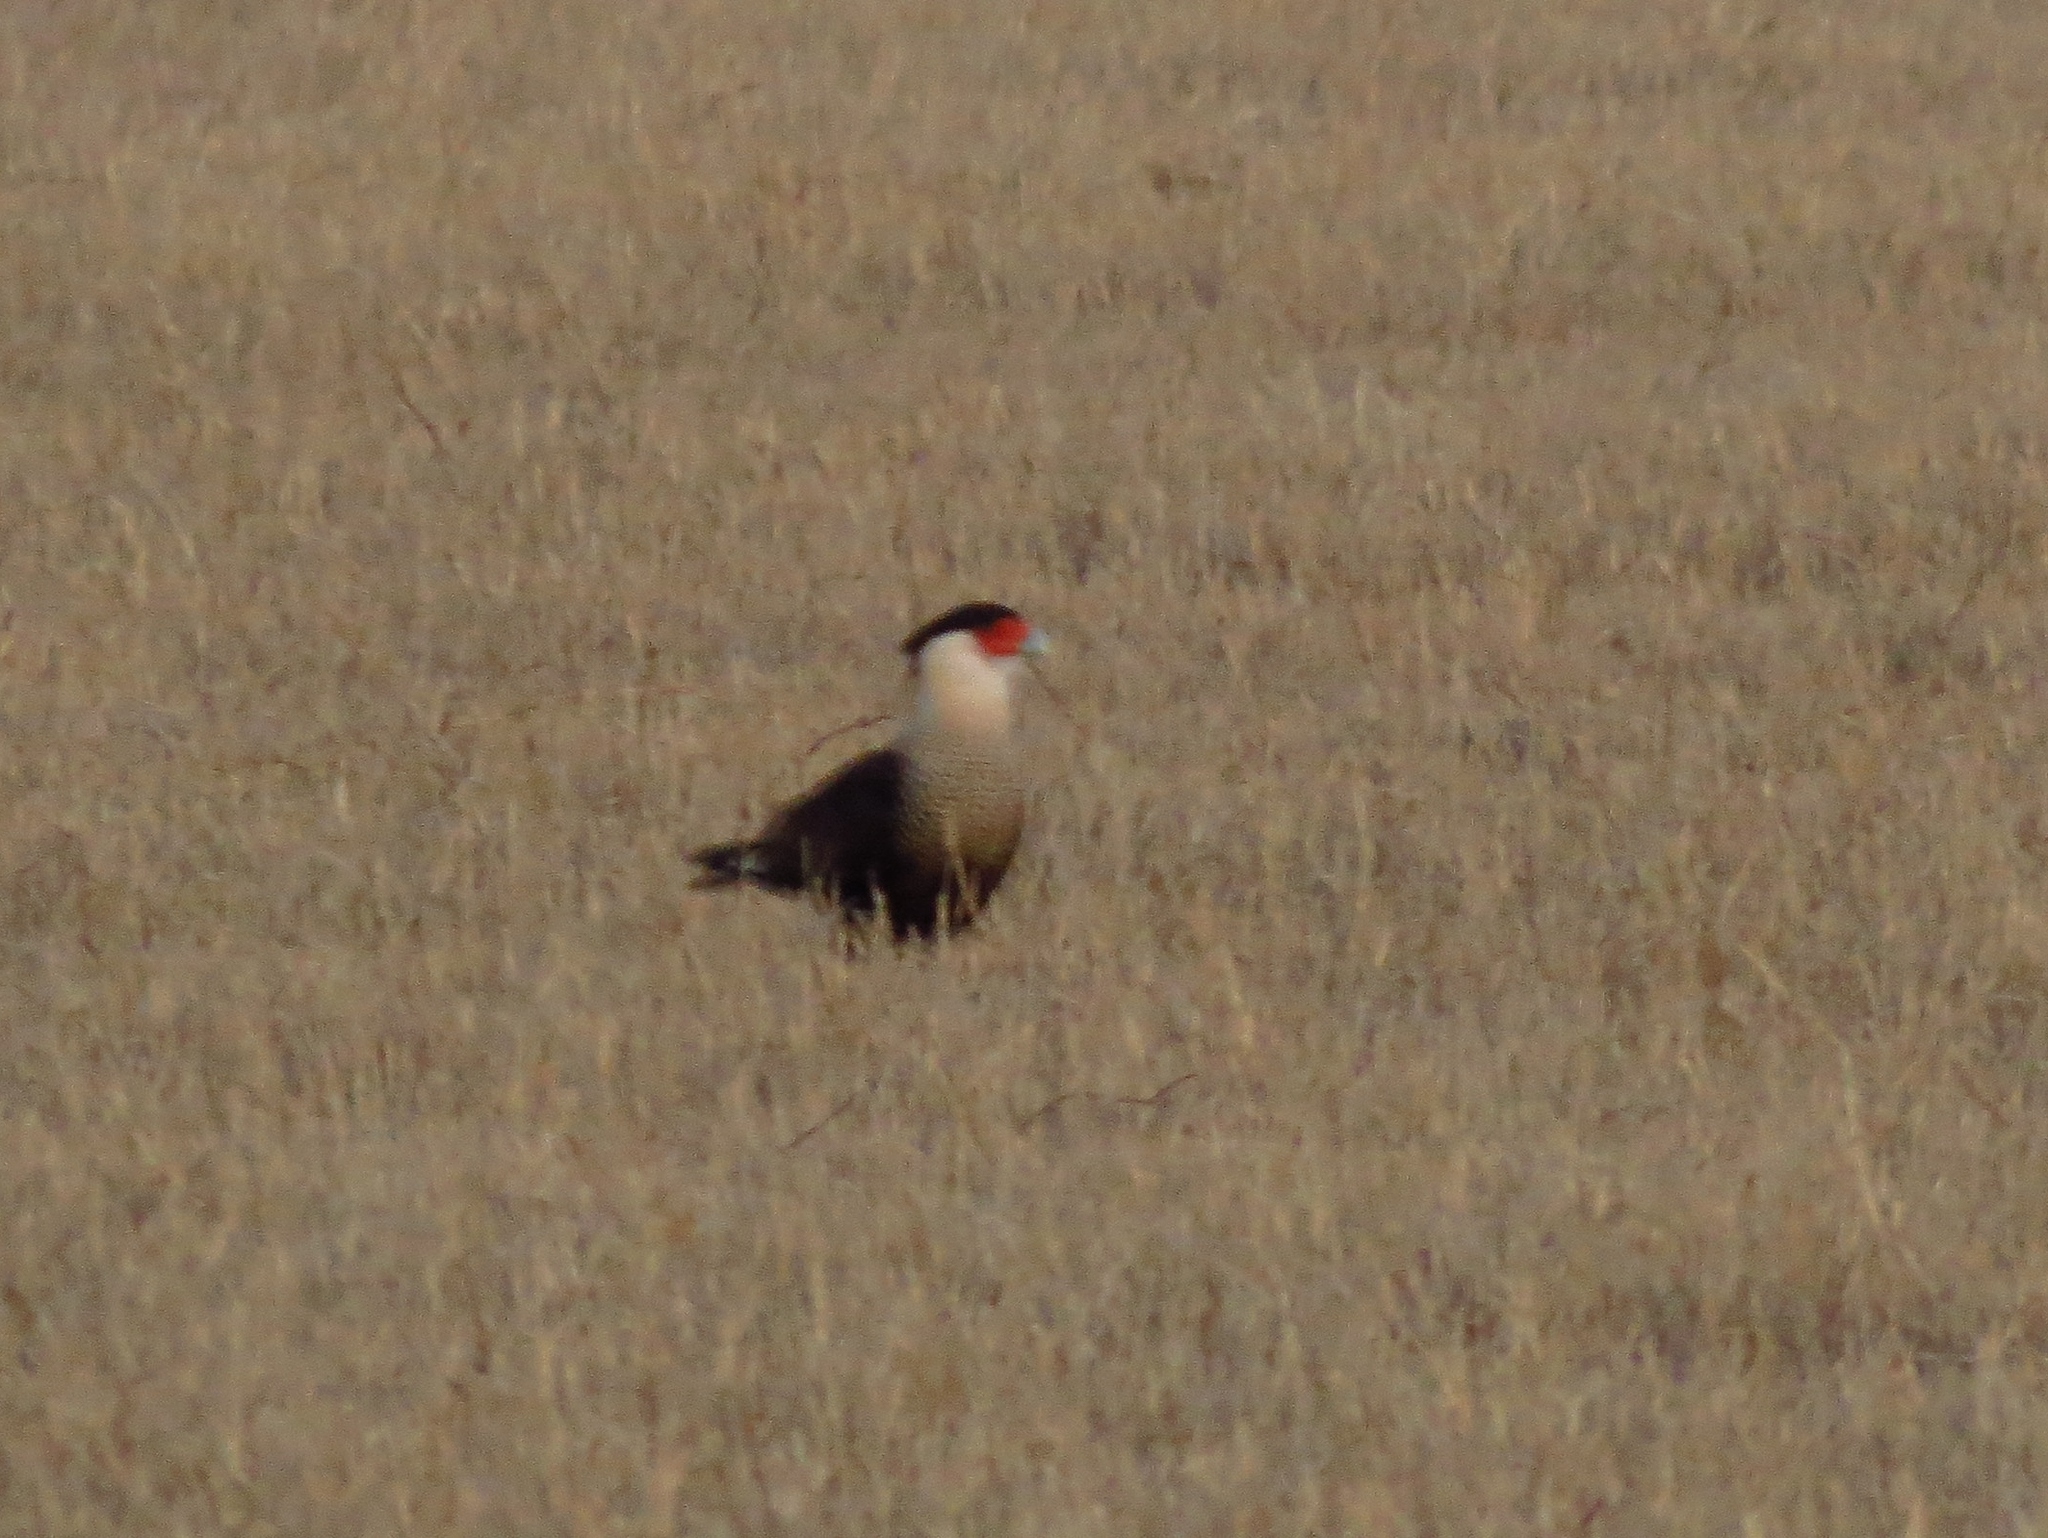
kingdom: Animalia
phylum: Chordata
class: Aves
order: Falconiformes
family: Falconidae
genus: Caracara
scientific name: Caracara plancus
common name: Southern caracara
